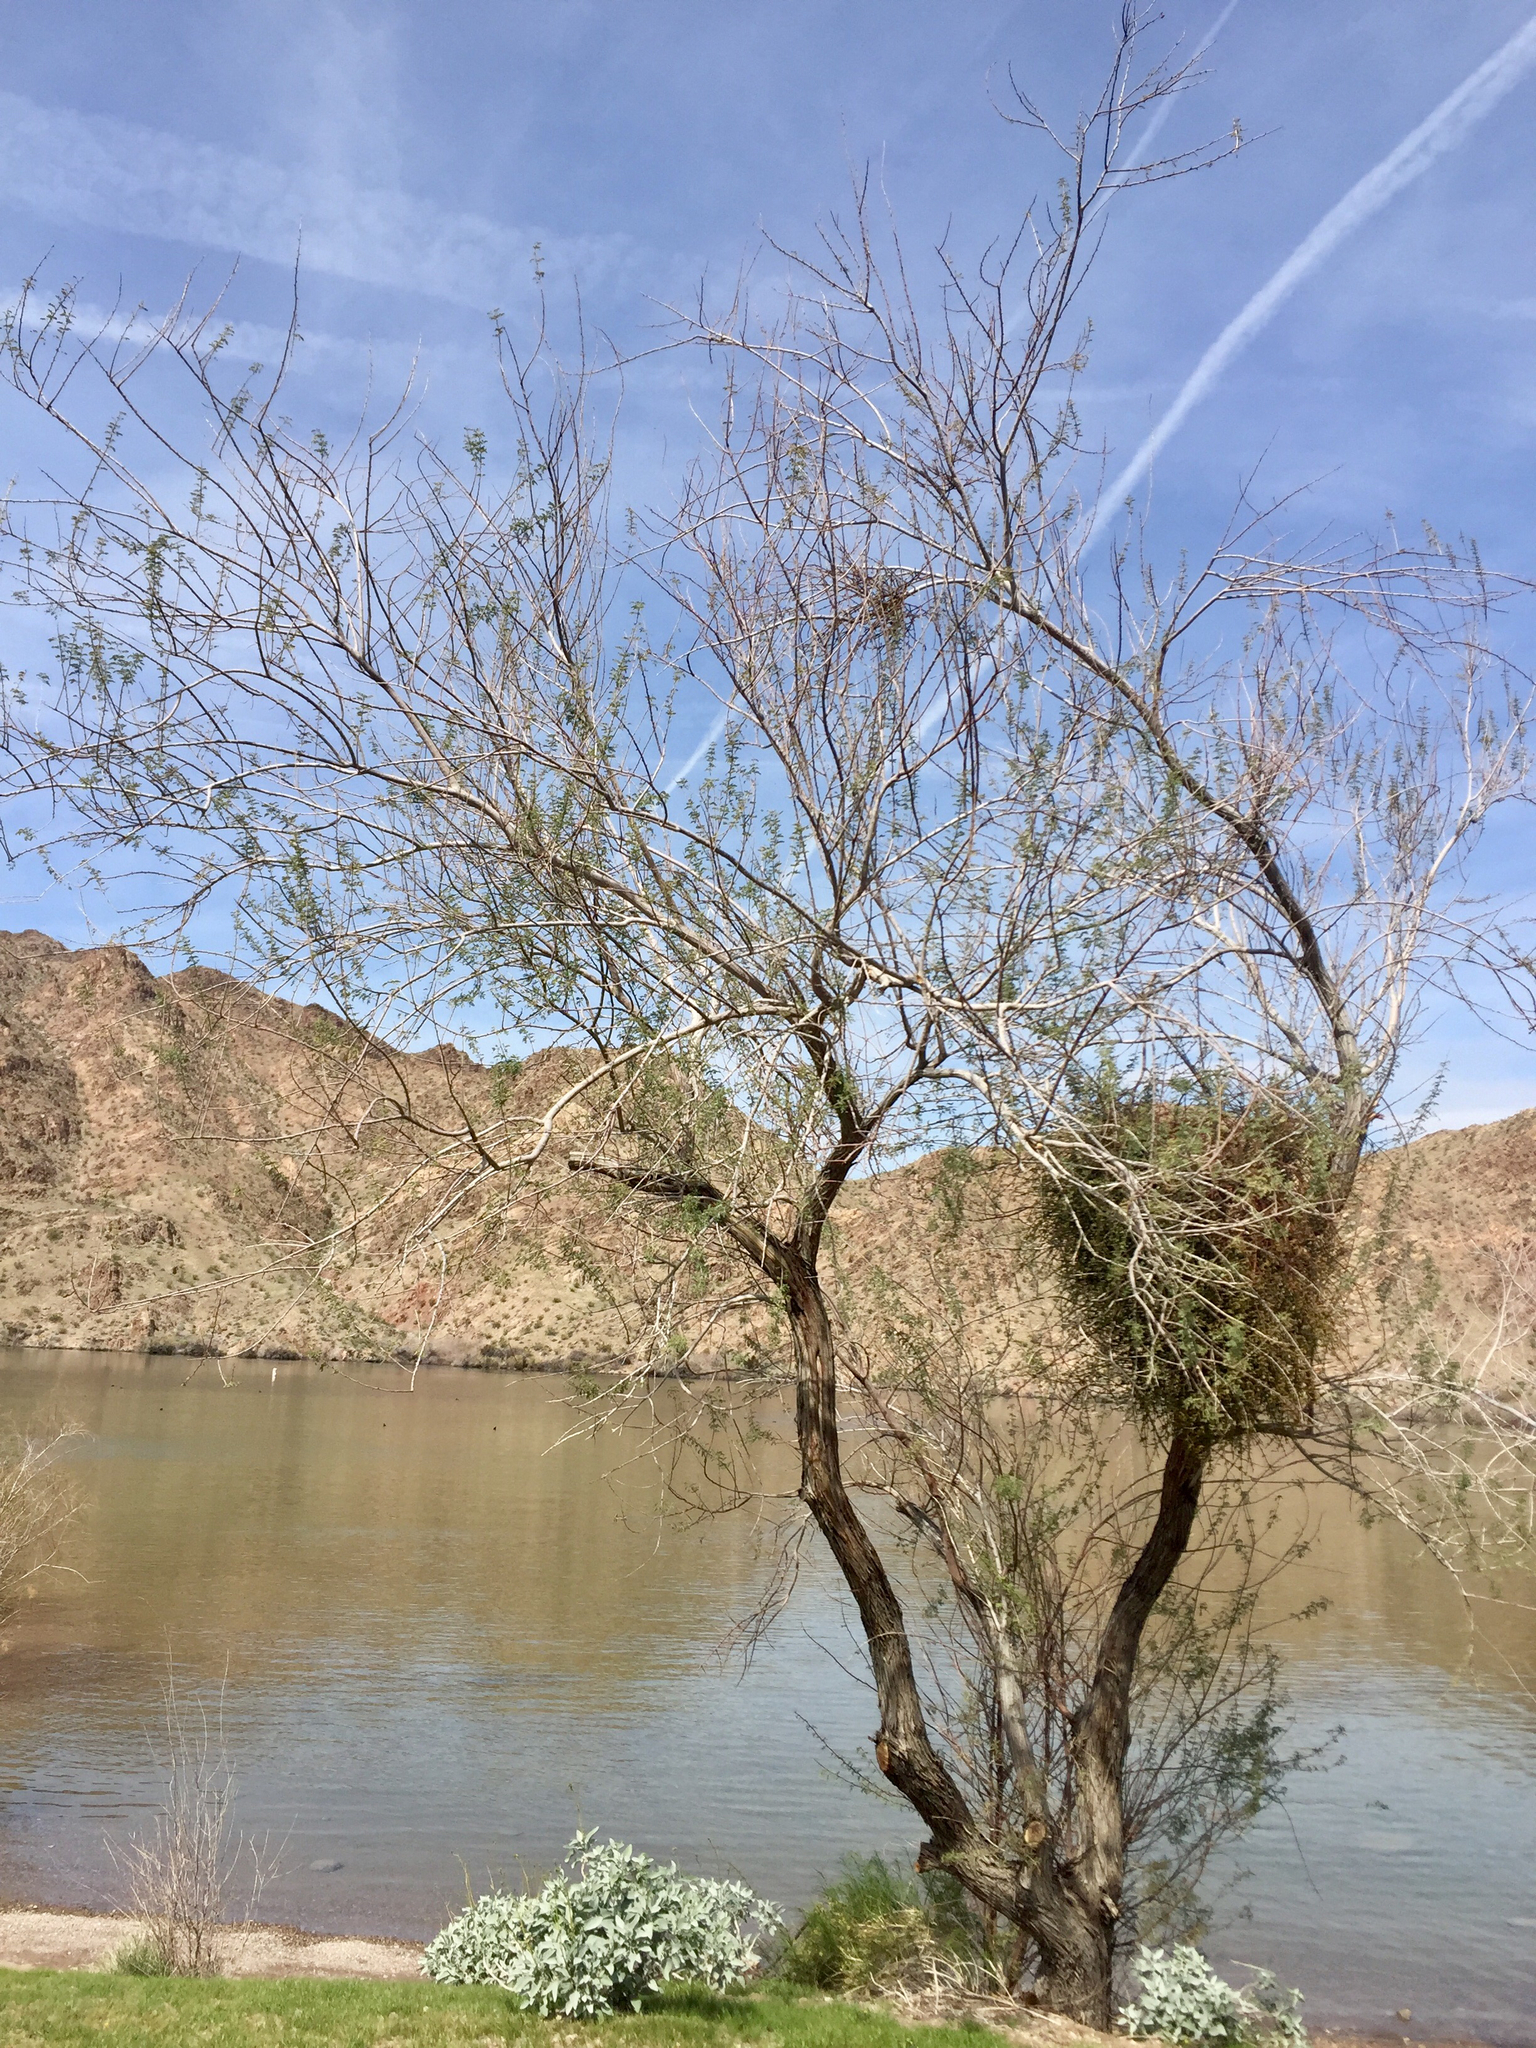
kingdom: Plantae
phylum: Tracheophyta
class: Magnoliopsida
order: Santalales
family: Viscaceae
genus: Phoradendron
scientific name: Phoradendron californicum
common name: Acacia mistletoe
